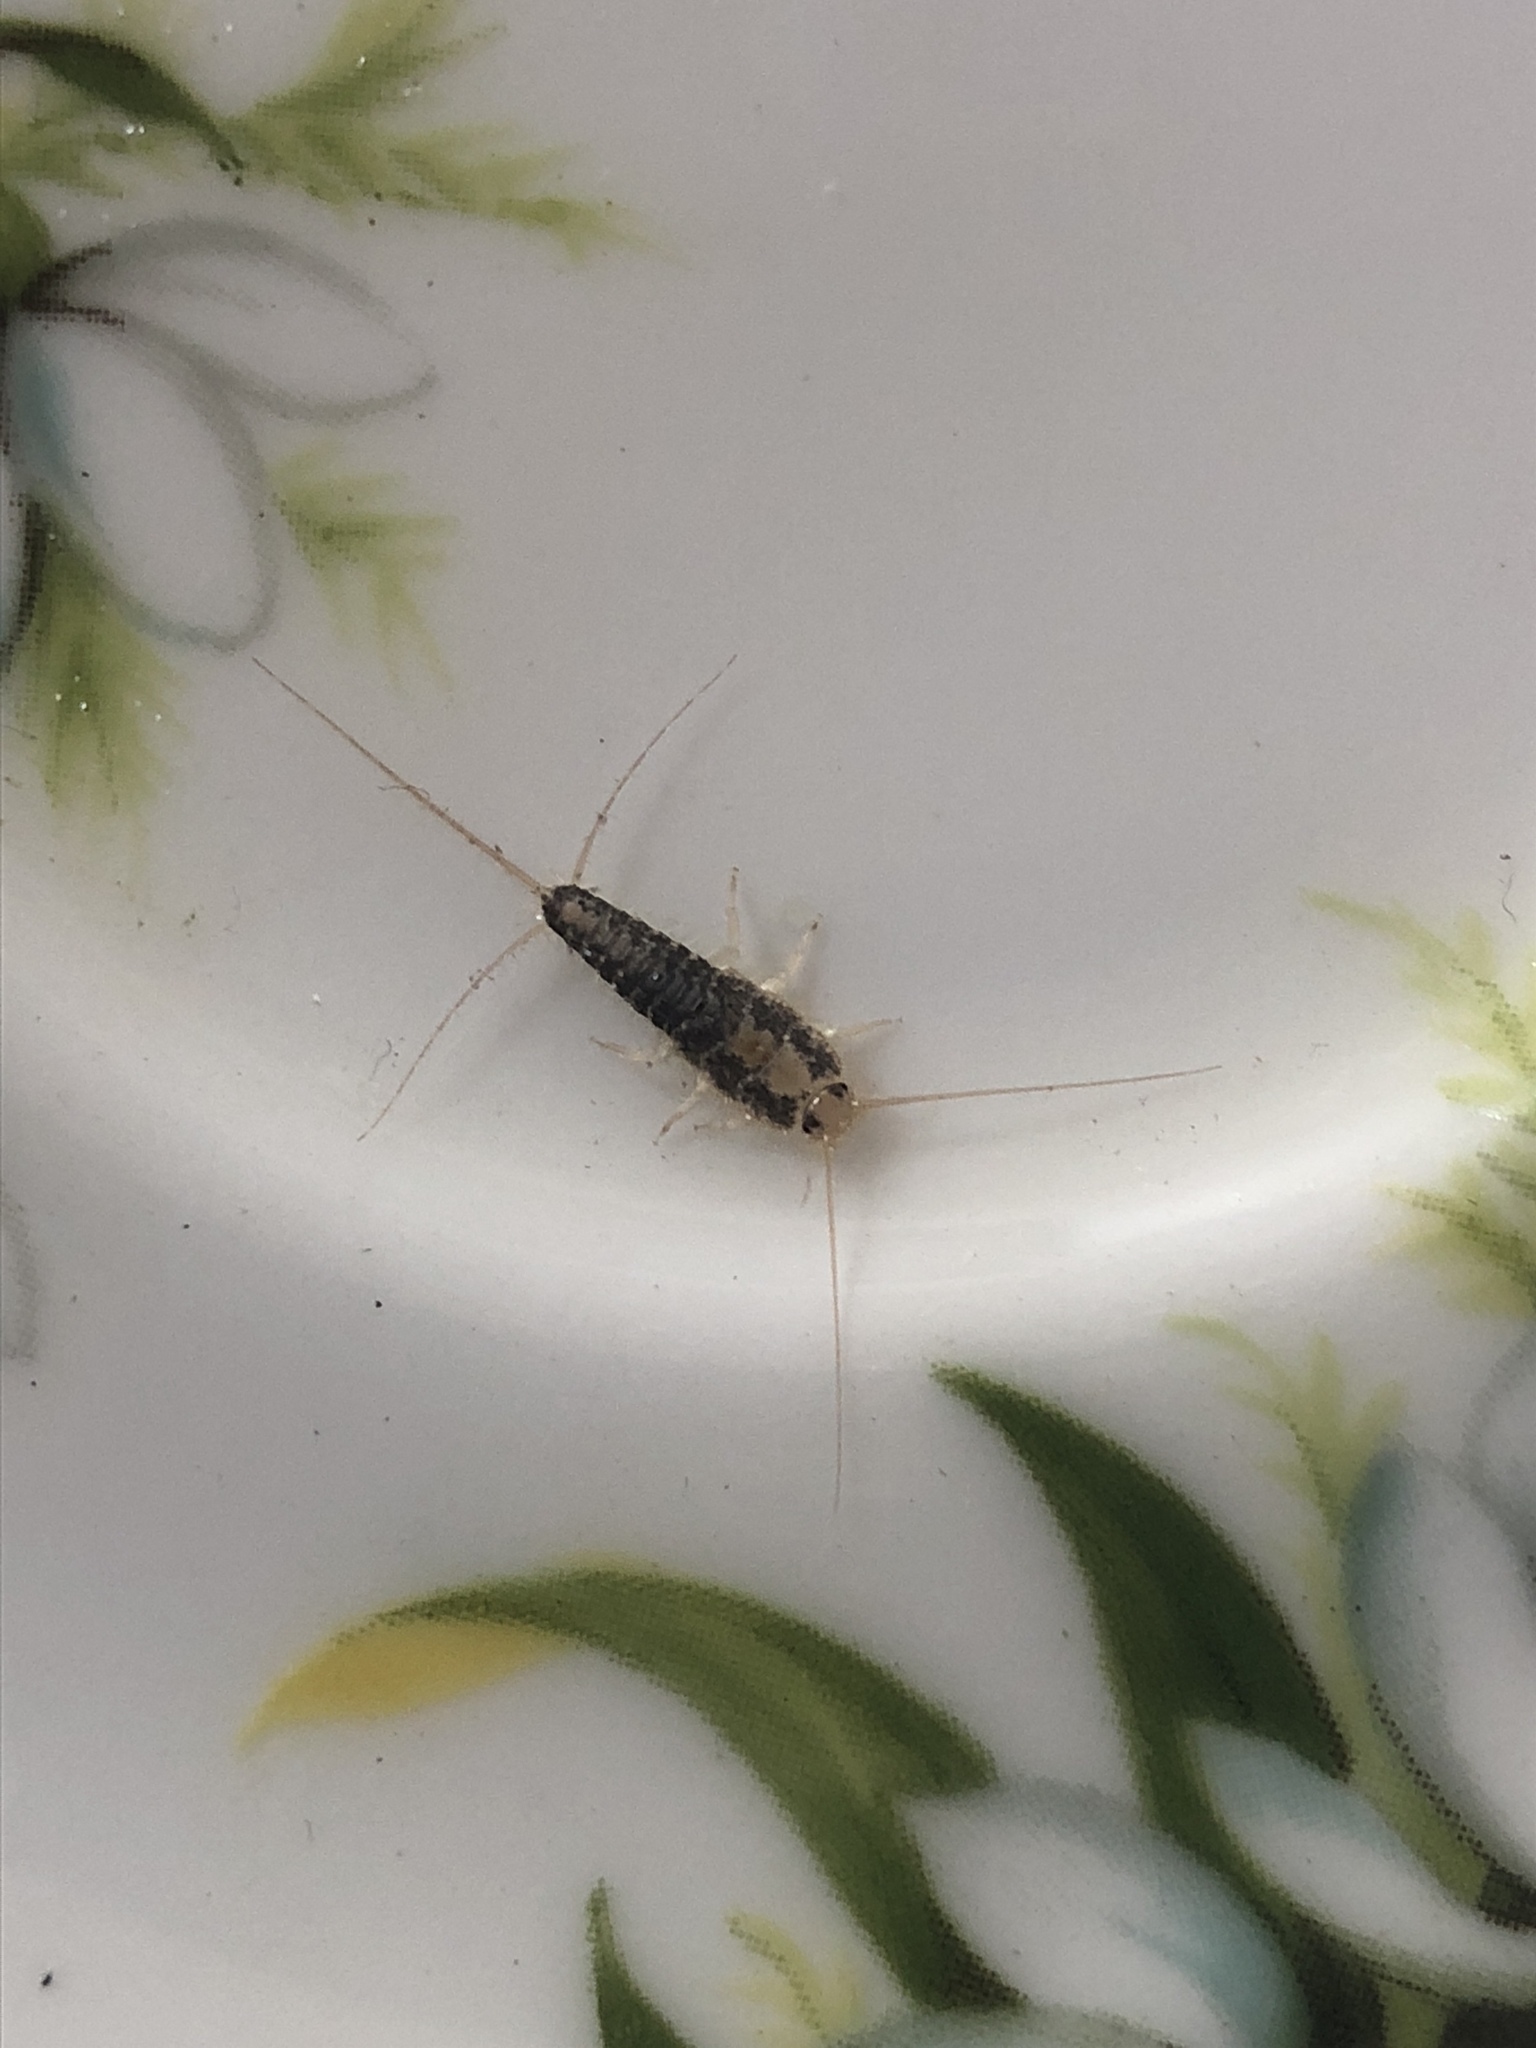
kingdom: Animalia
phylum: Arthropoda
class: Insecta
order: Zygentoma
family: Lepismatidae
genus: Ctenolepisma
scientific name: Ctenolepisma longicaudatum
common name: Silverfish
